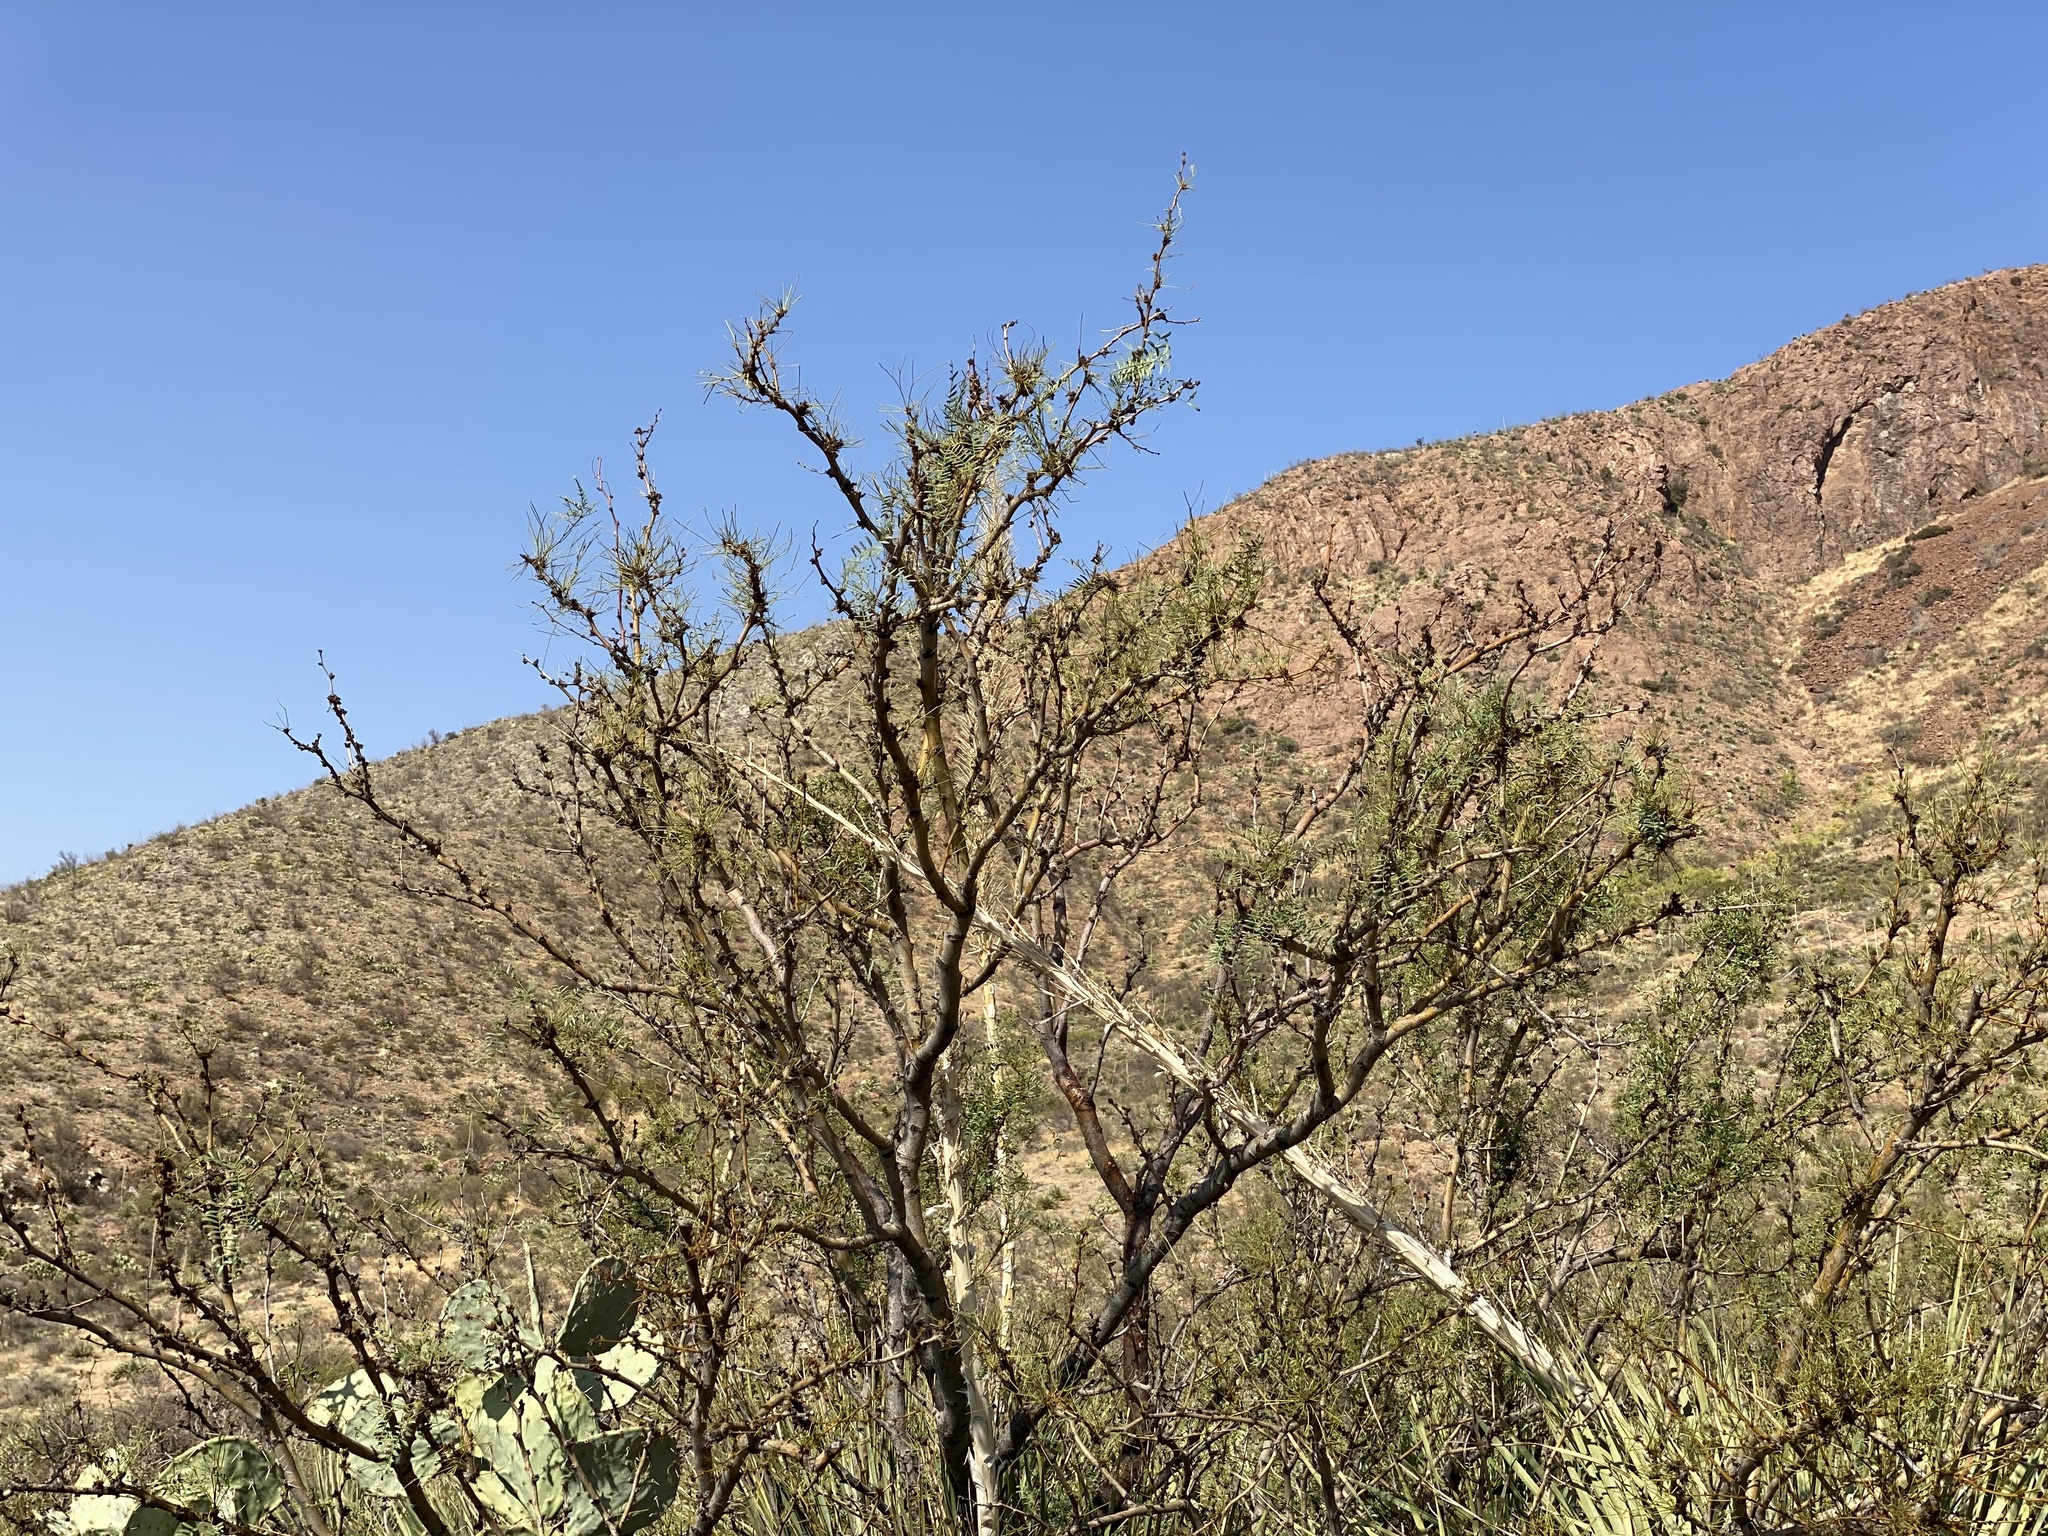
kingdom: Plantae
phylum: Tracheophyta
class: Magnoliopsida
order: Fabales
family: Fabaceae
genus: Prosopis
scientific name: Prosopis glandulosa
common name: Honey mesquite
